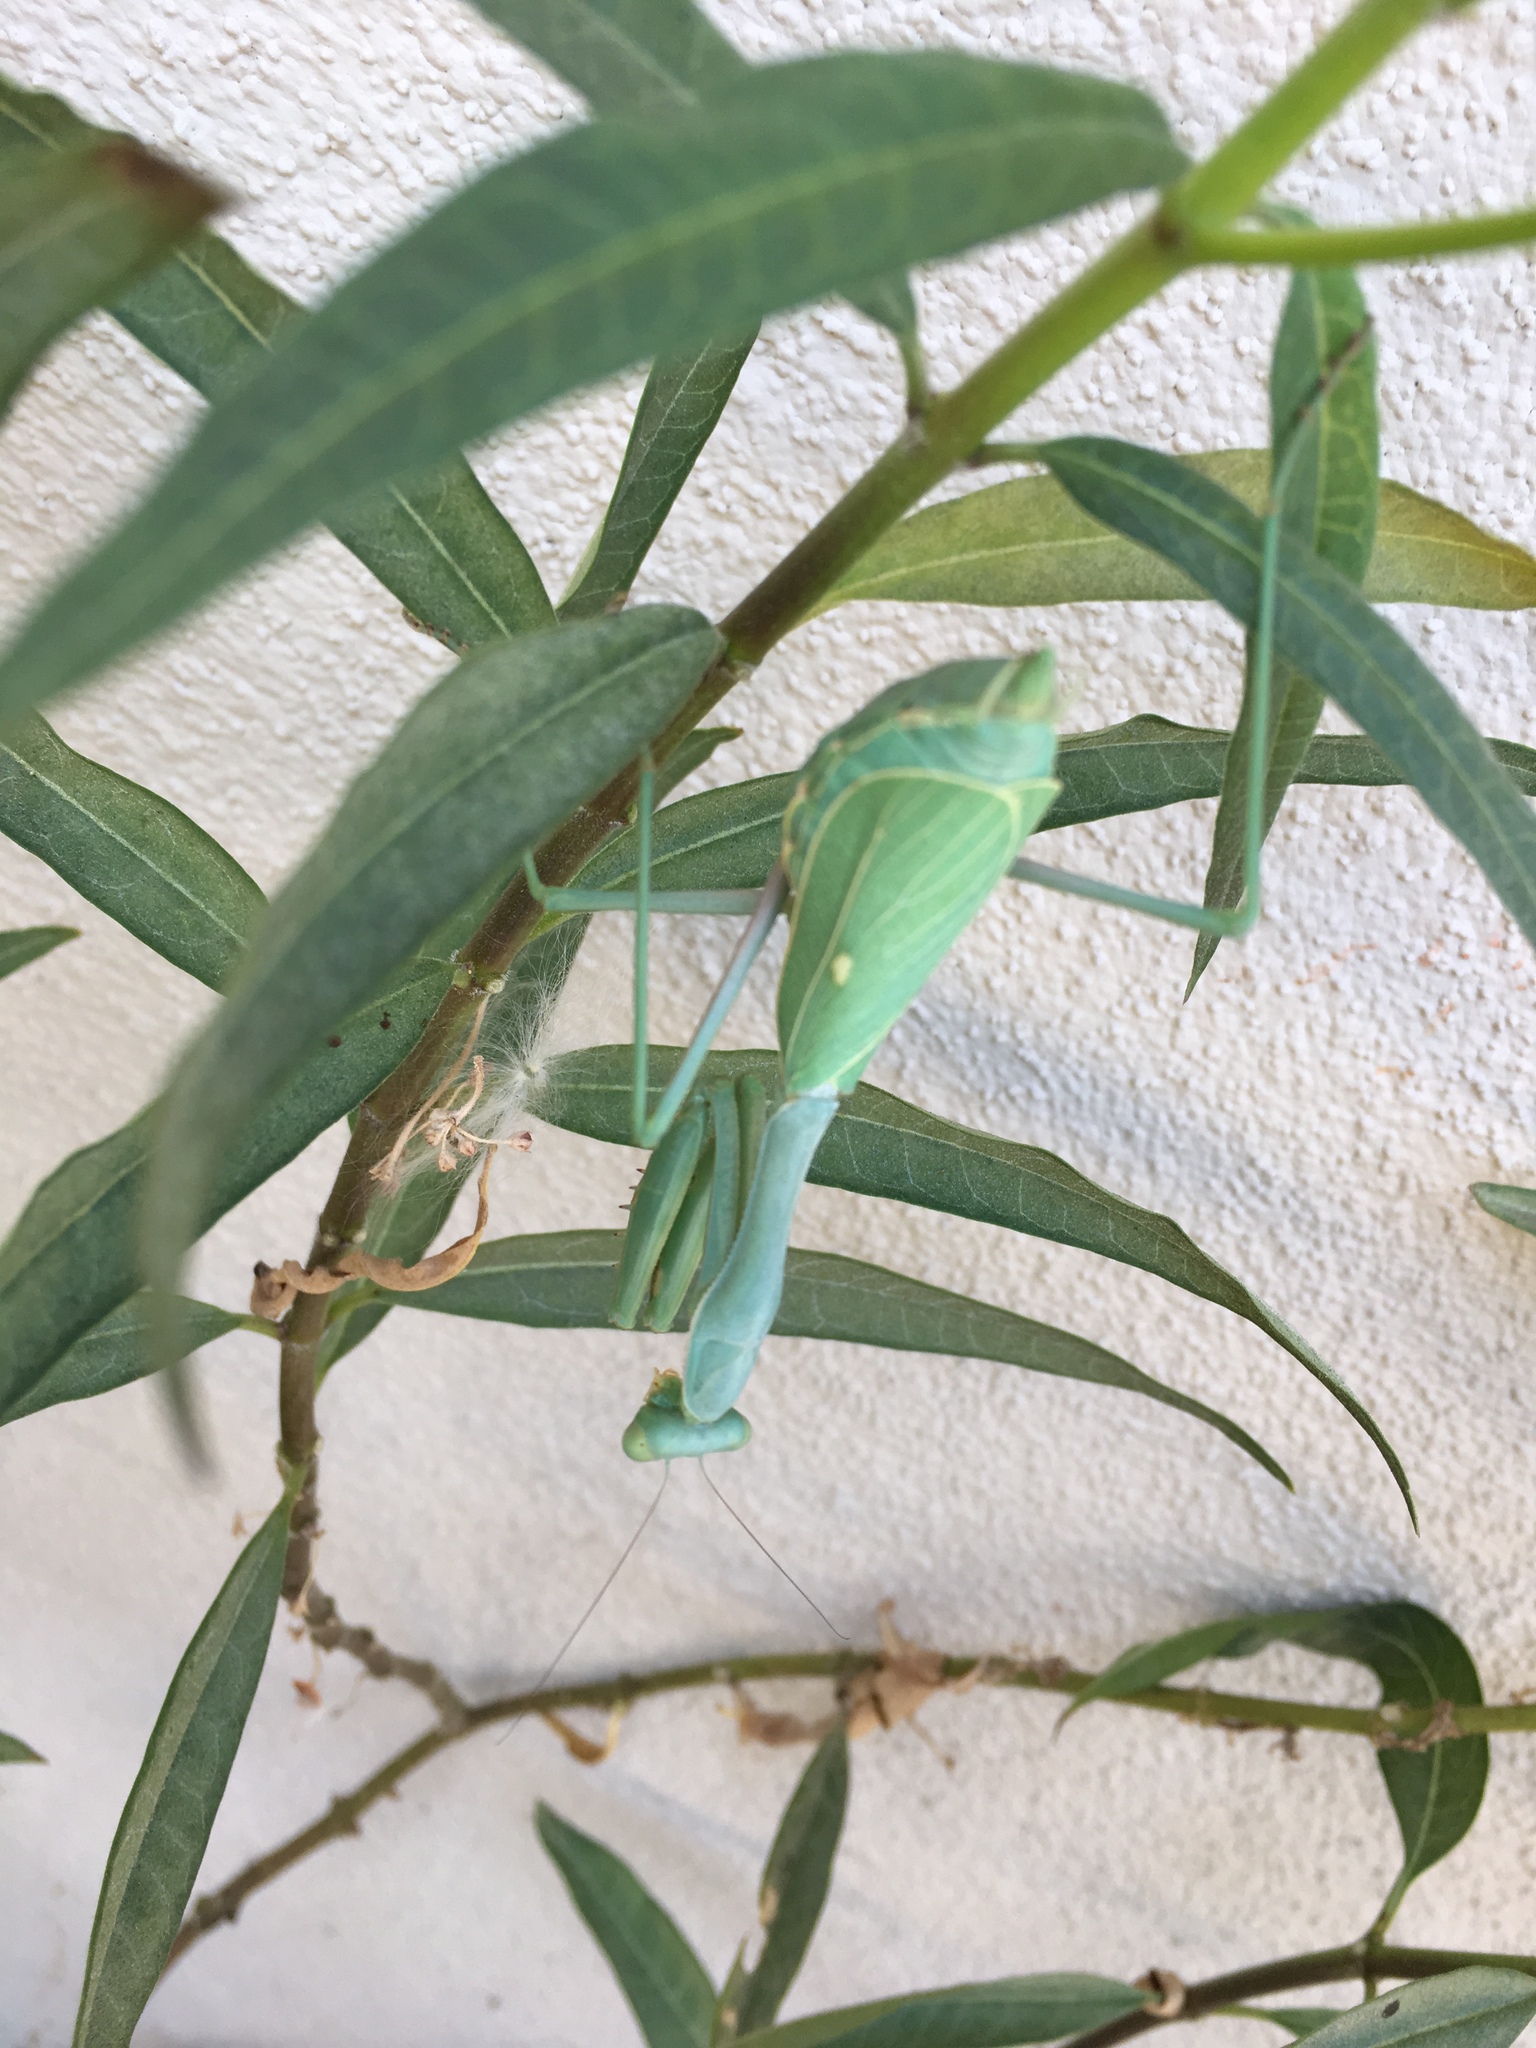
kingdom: Animalia
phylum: Arthropoda
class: Insecta
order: Mantodea
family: Mantidae
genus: Stagmomantis
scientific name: Stagmomantis limbata
